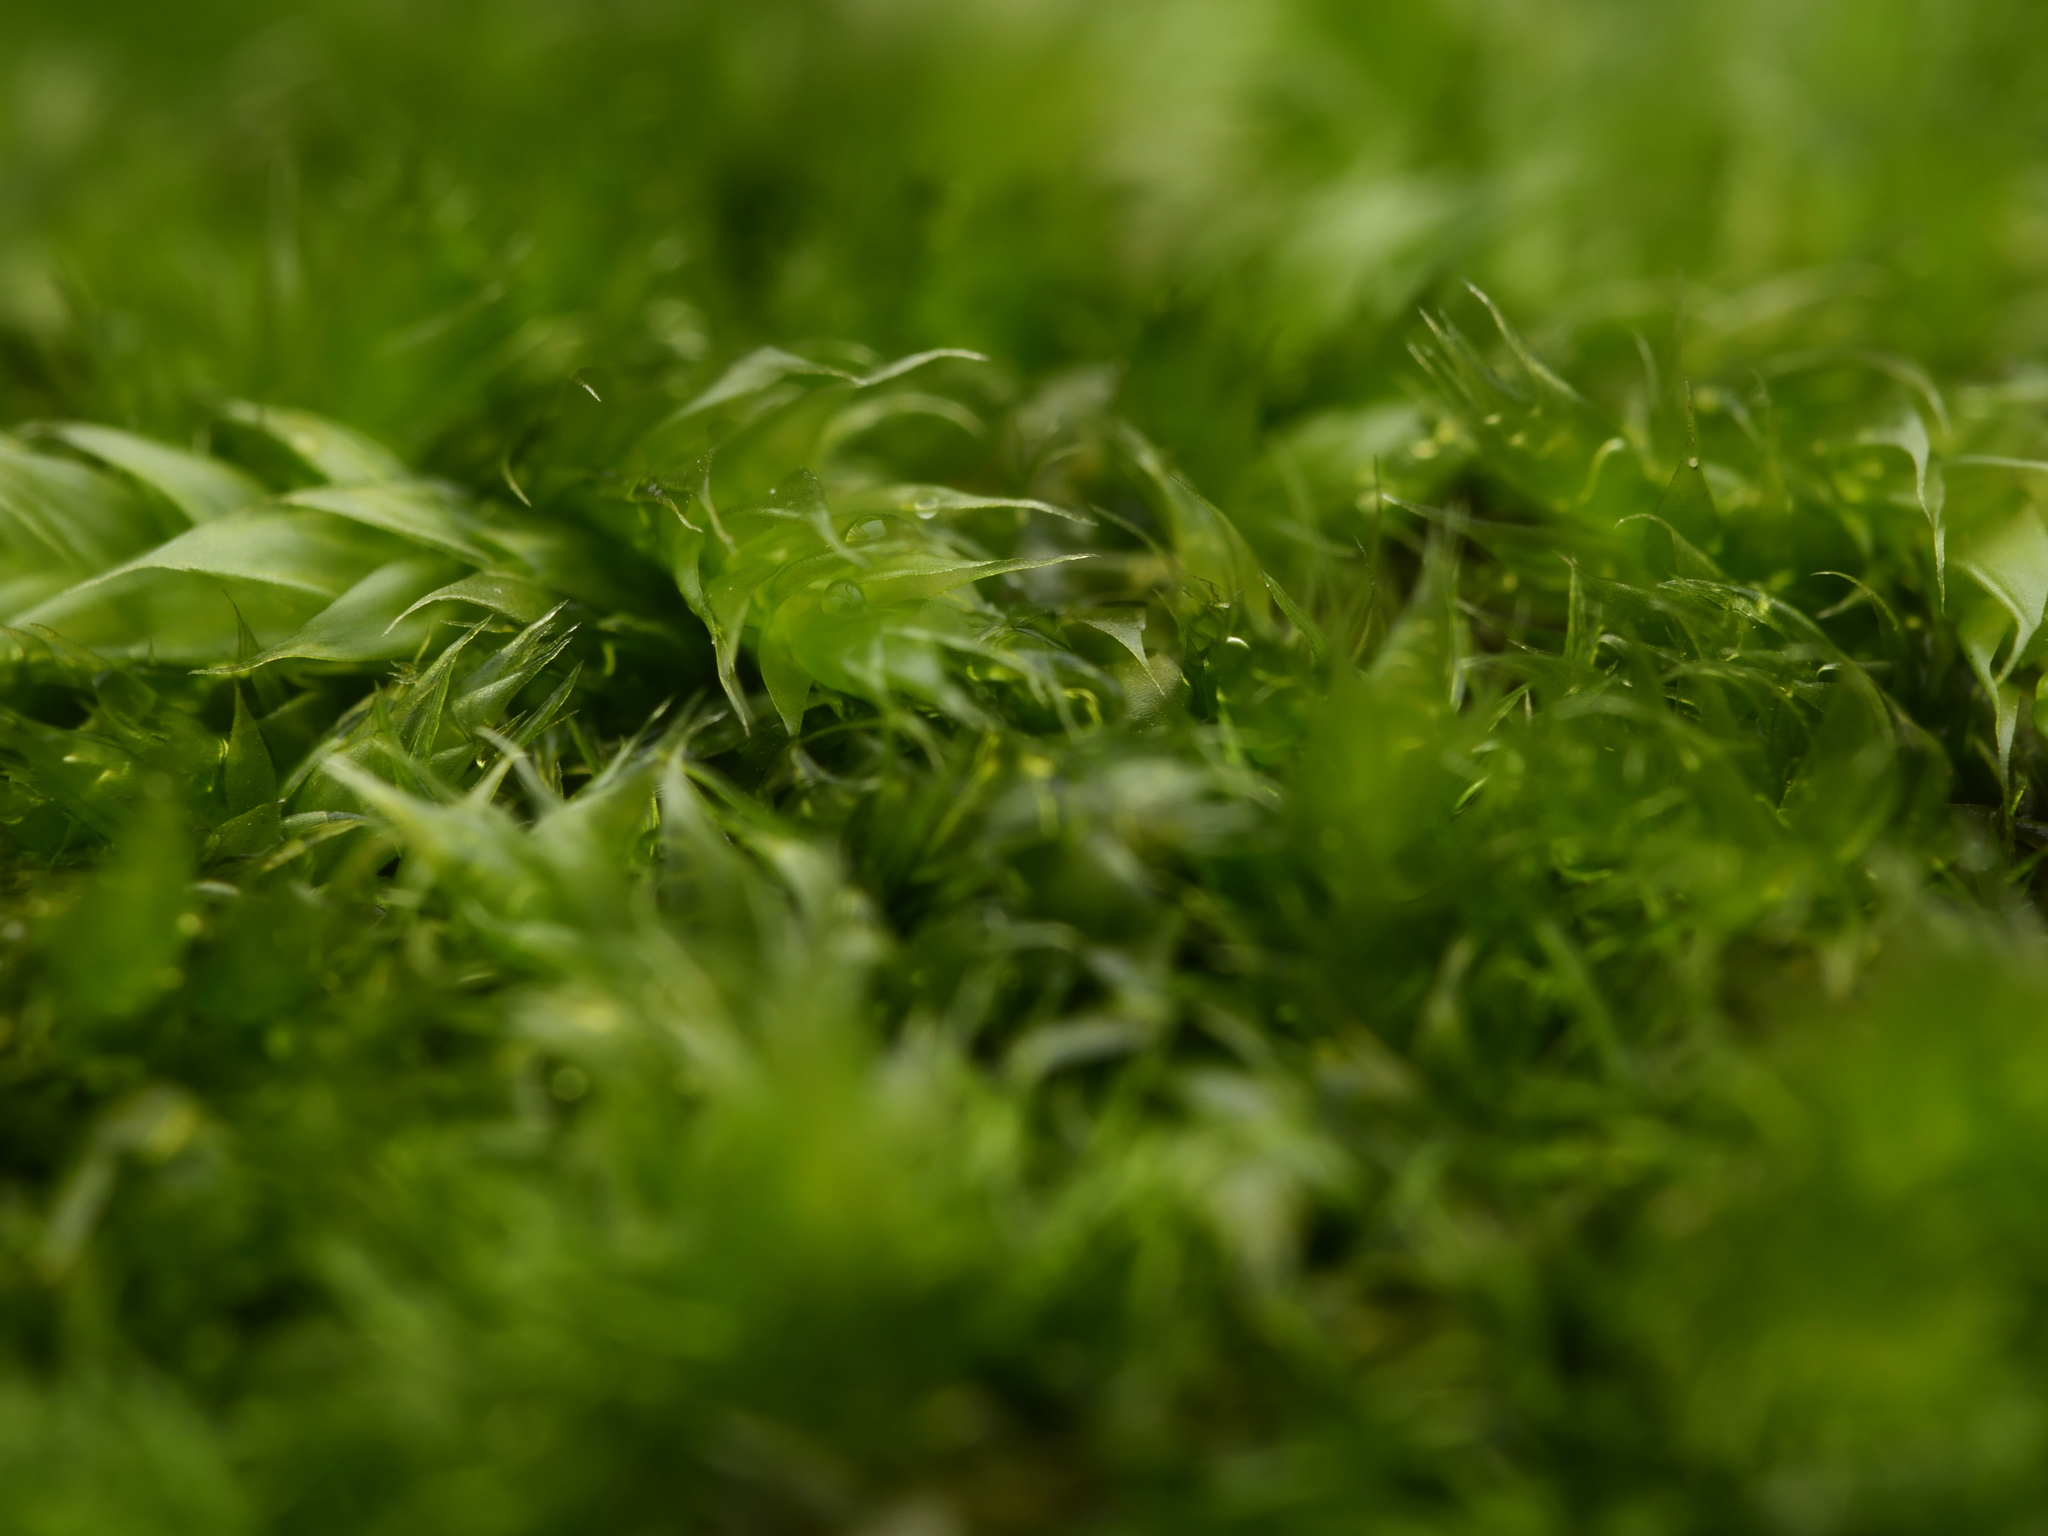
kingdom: Plantae
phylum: Bryophyta
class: Bryopsida
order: Dicranales
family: Rhabdoweisiaceae
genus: Dicranoweisia
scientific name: Dicranoweisia cirrata
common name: Common pincushion
